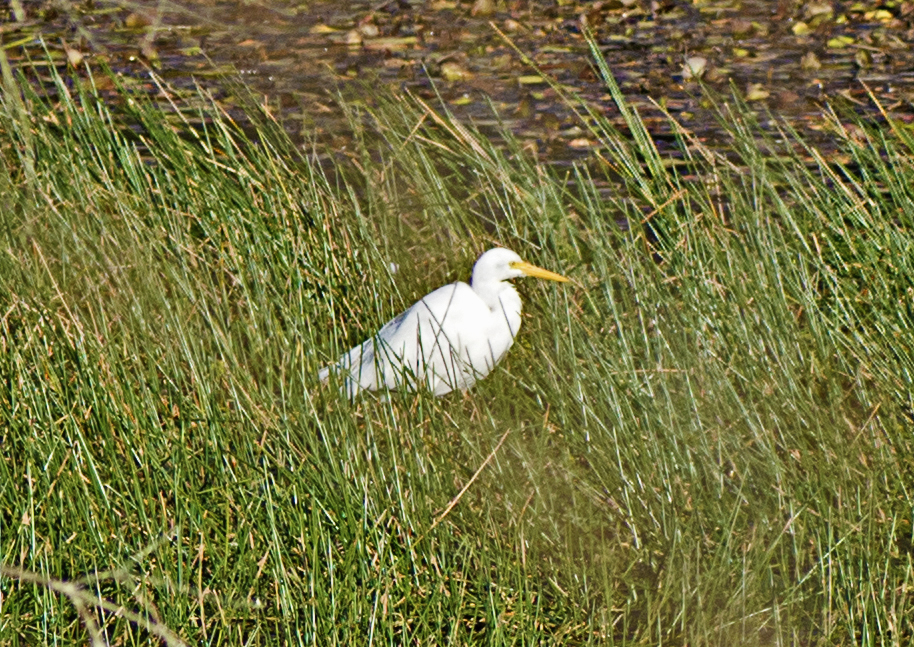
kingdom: Animalia
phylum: Chordata
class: Aves
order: Pelecaniformes
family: Ardeidae
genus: Egretta
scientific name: Egretta intermedia
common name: Intermediate egret
